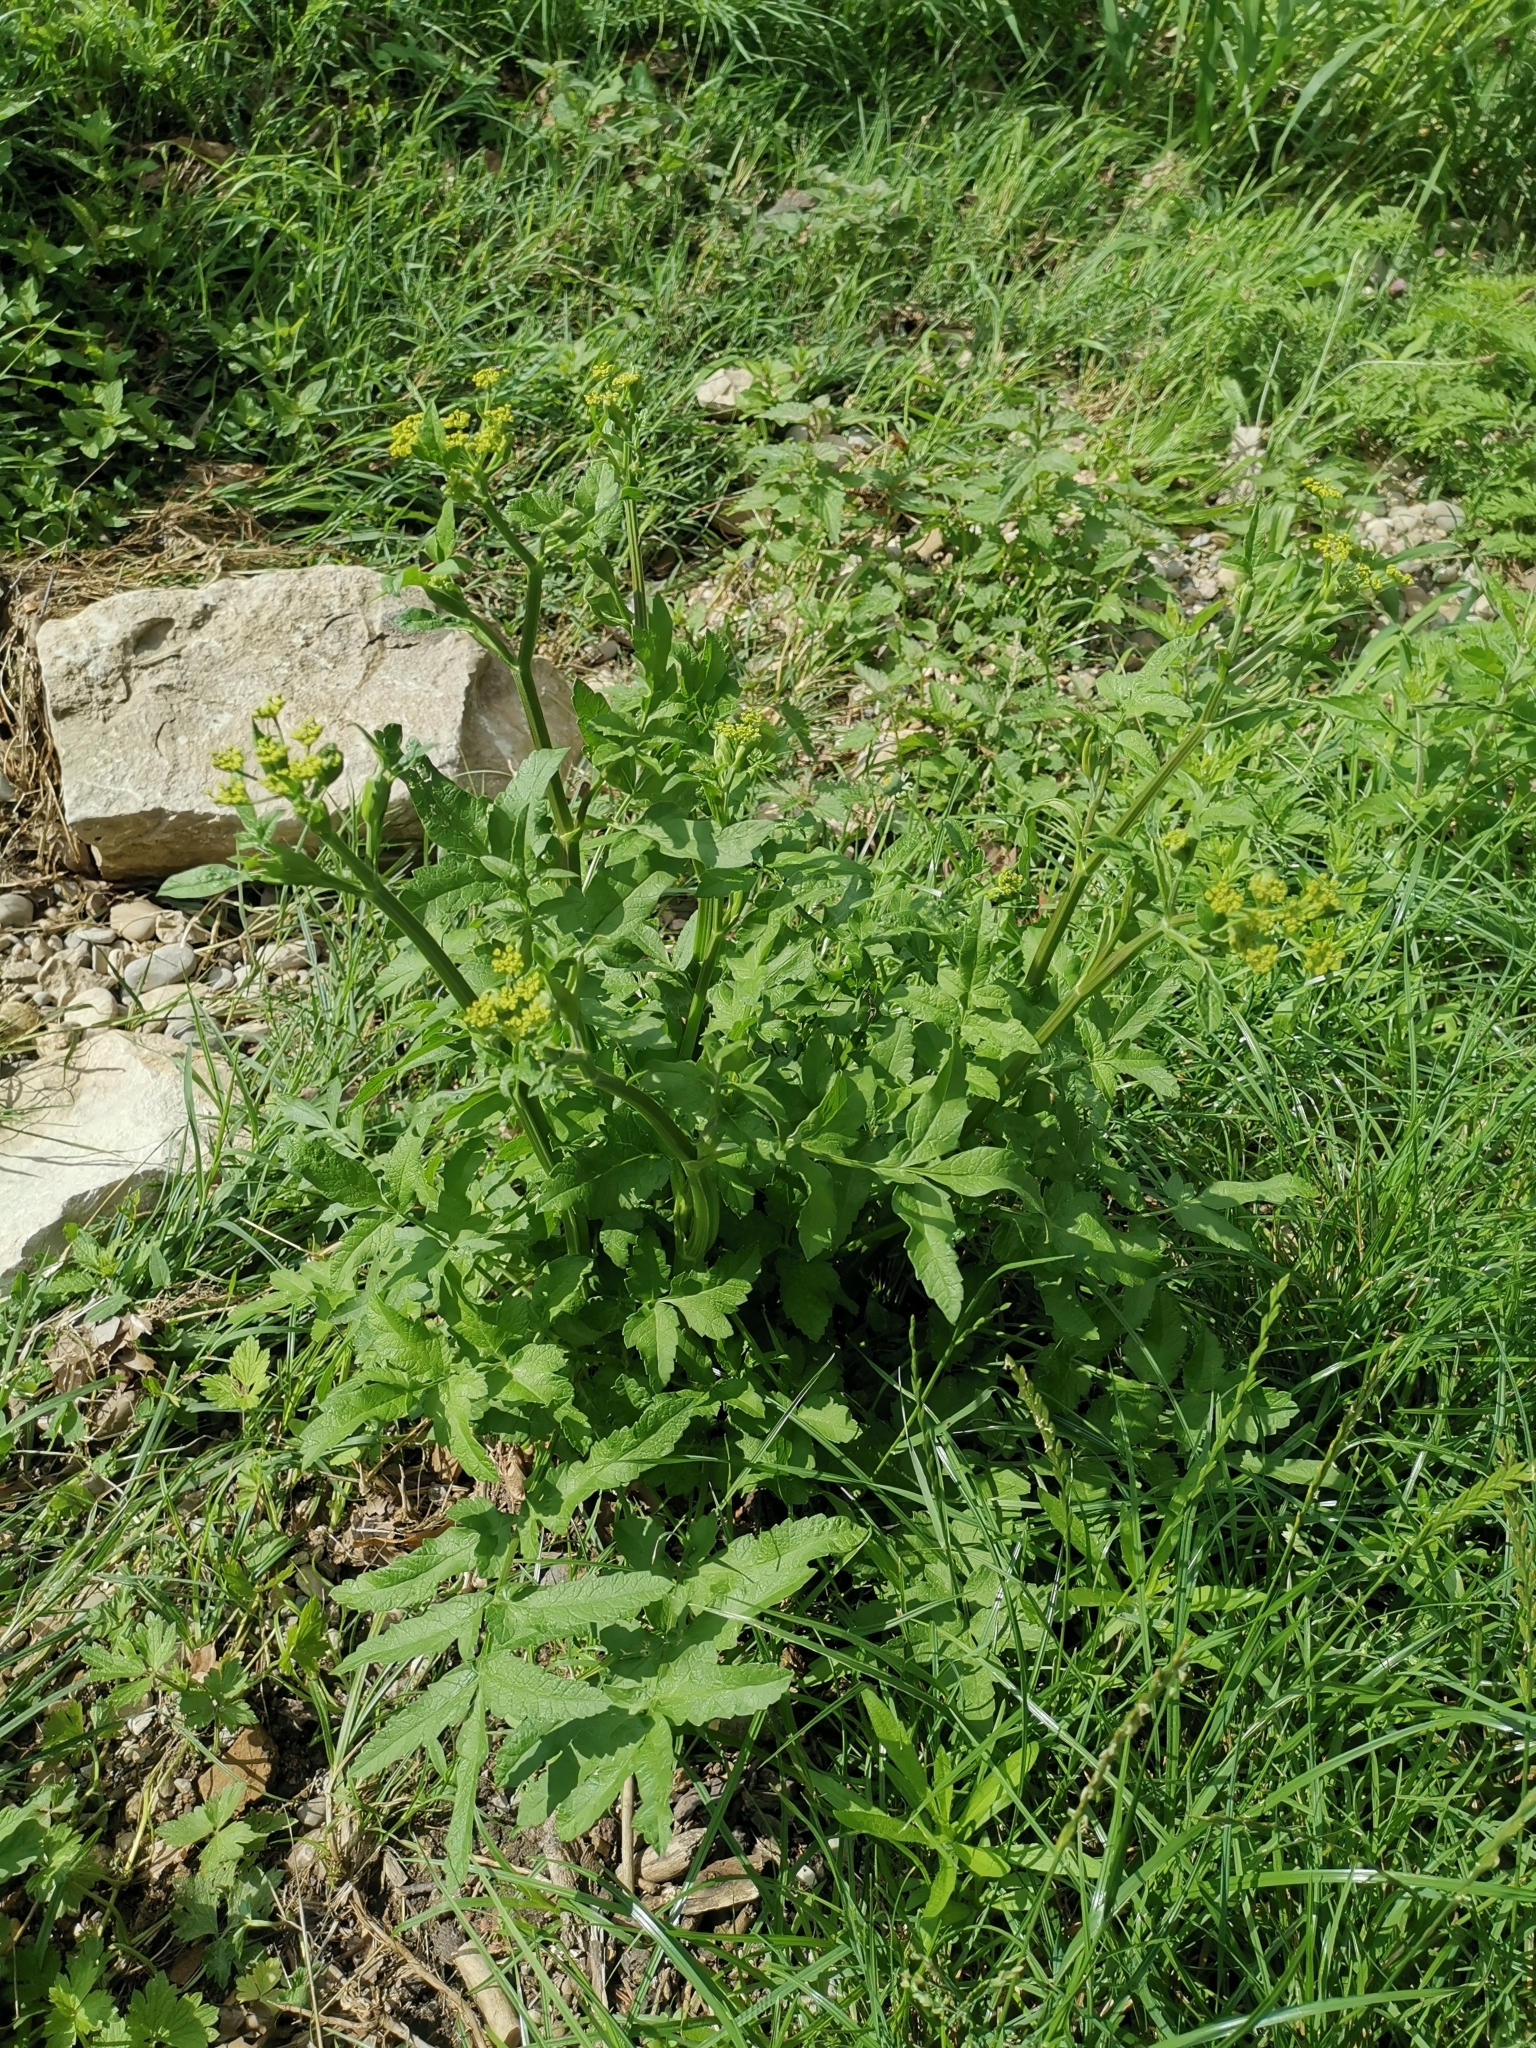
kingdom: Plantae
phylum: Tracheophyta
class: Magnoliopsida
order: Apiales
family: Apiaceae
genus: Pastinaca
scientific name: Pastinaca sativa
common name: Wild parsnip
